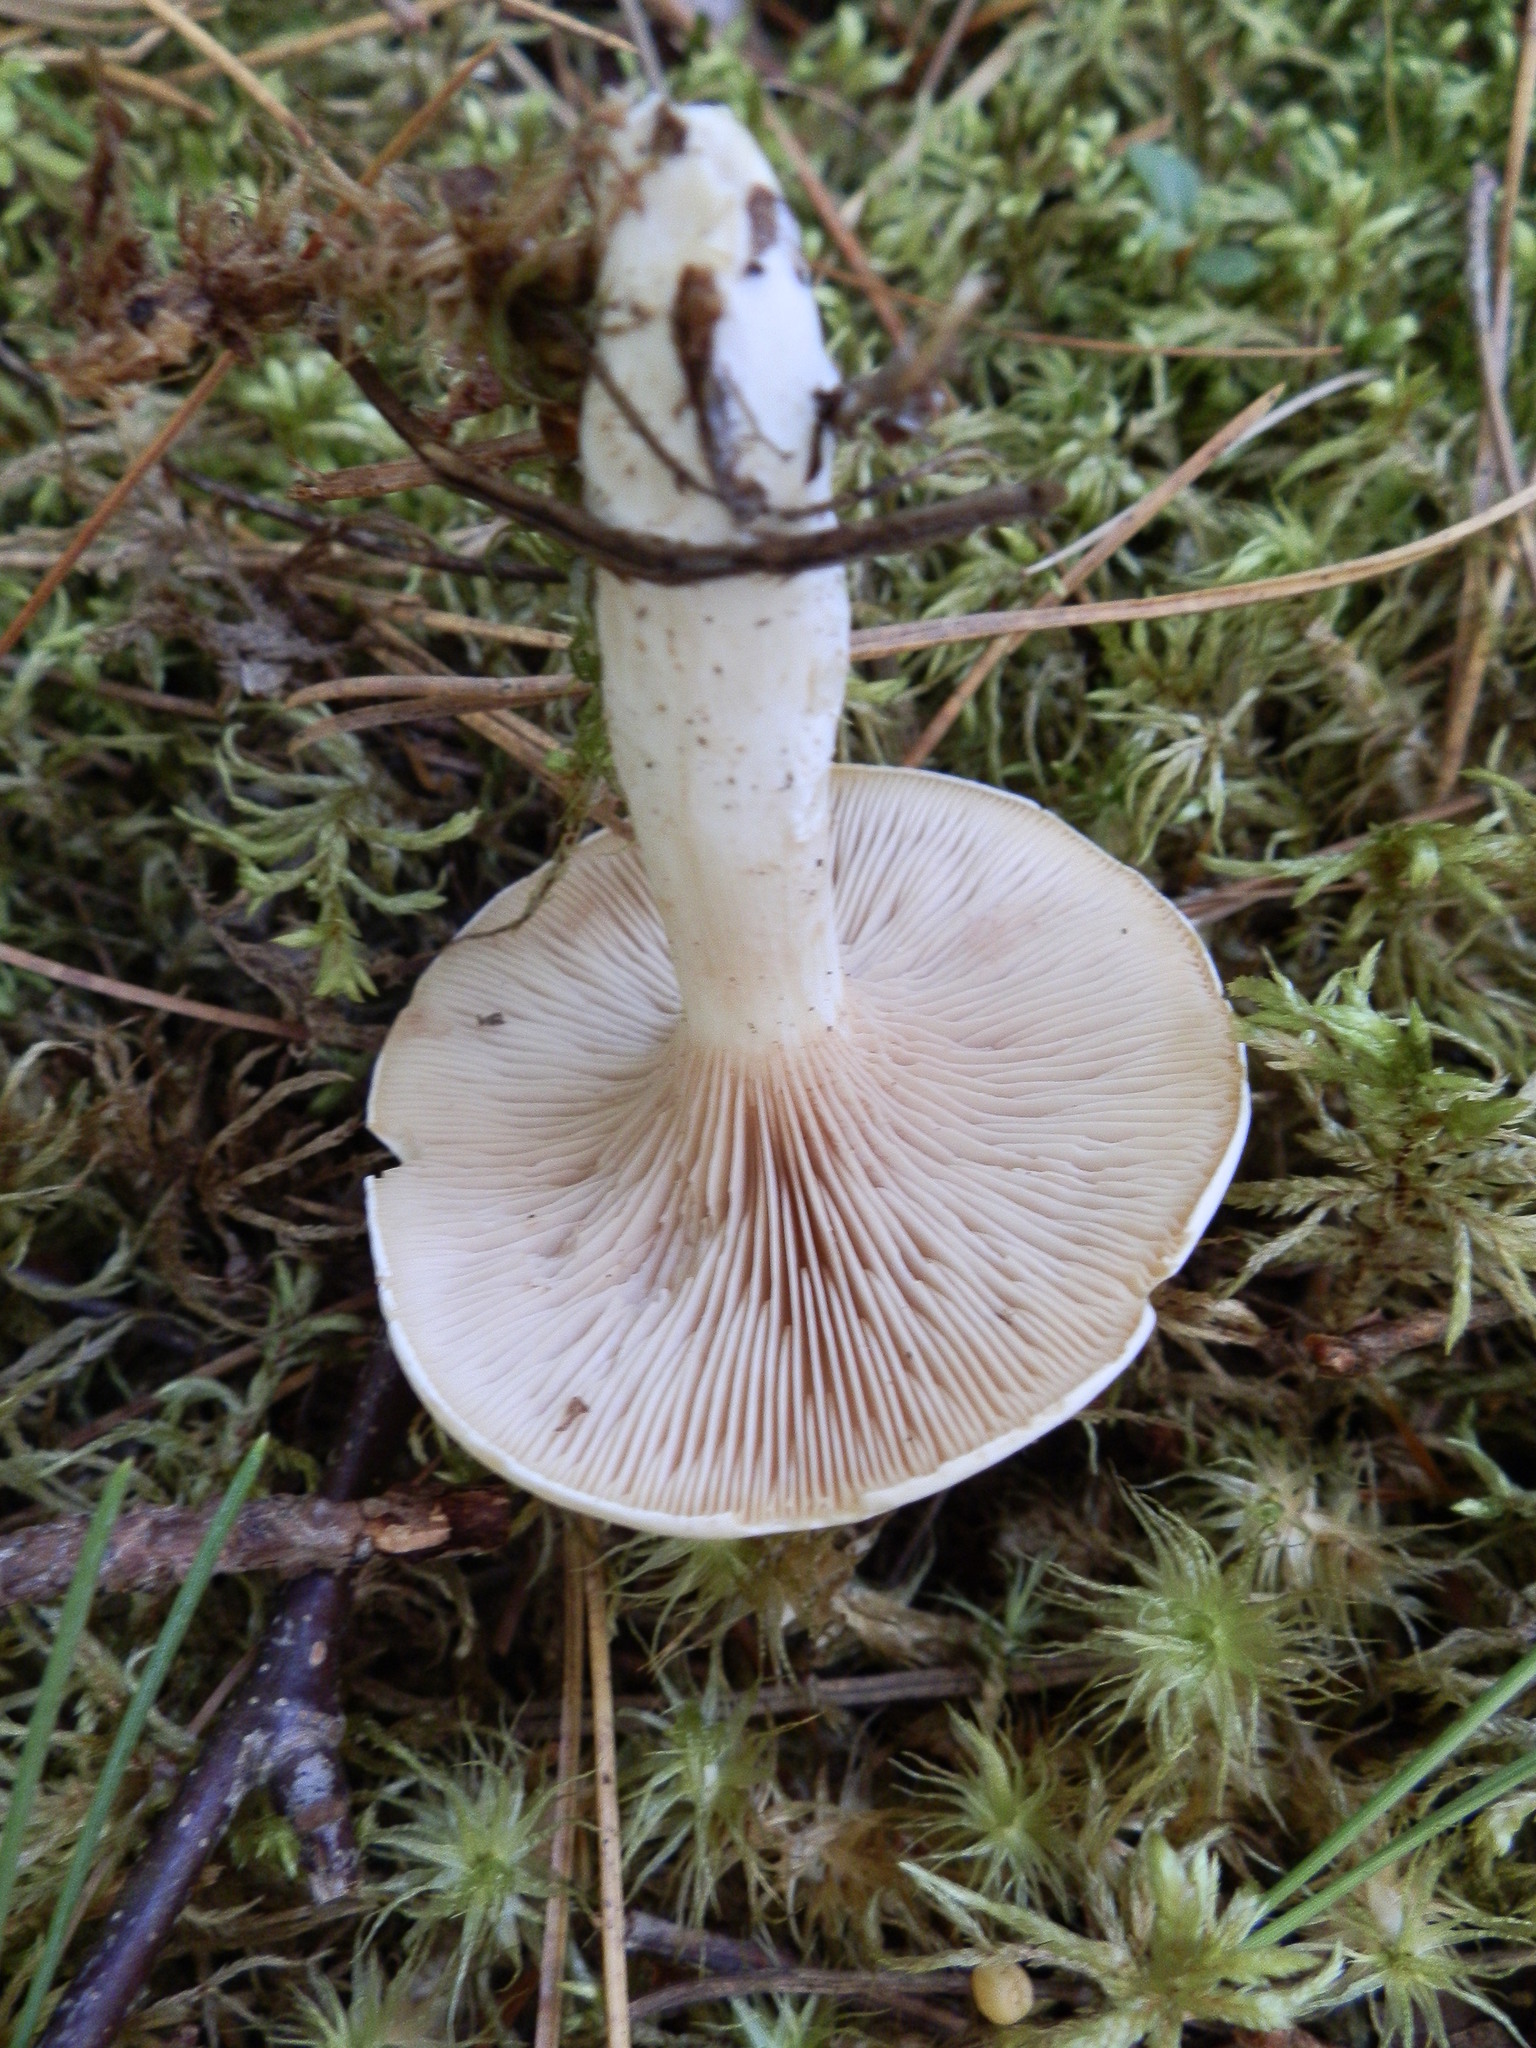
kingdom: Fungi
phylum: Basidiomycota
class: Agaricomycetes
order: Agaricales
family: Entolomataceae
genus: Clitopilus
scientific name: Clitopilus prunulus
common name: The miller
